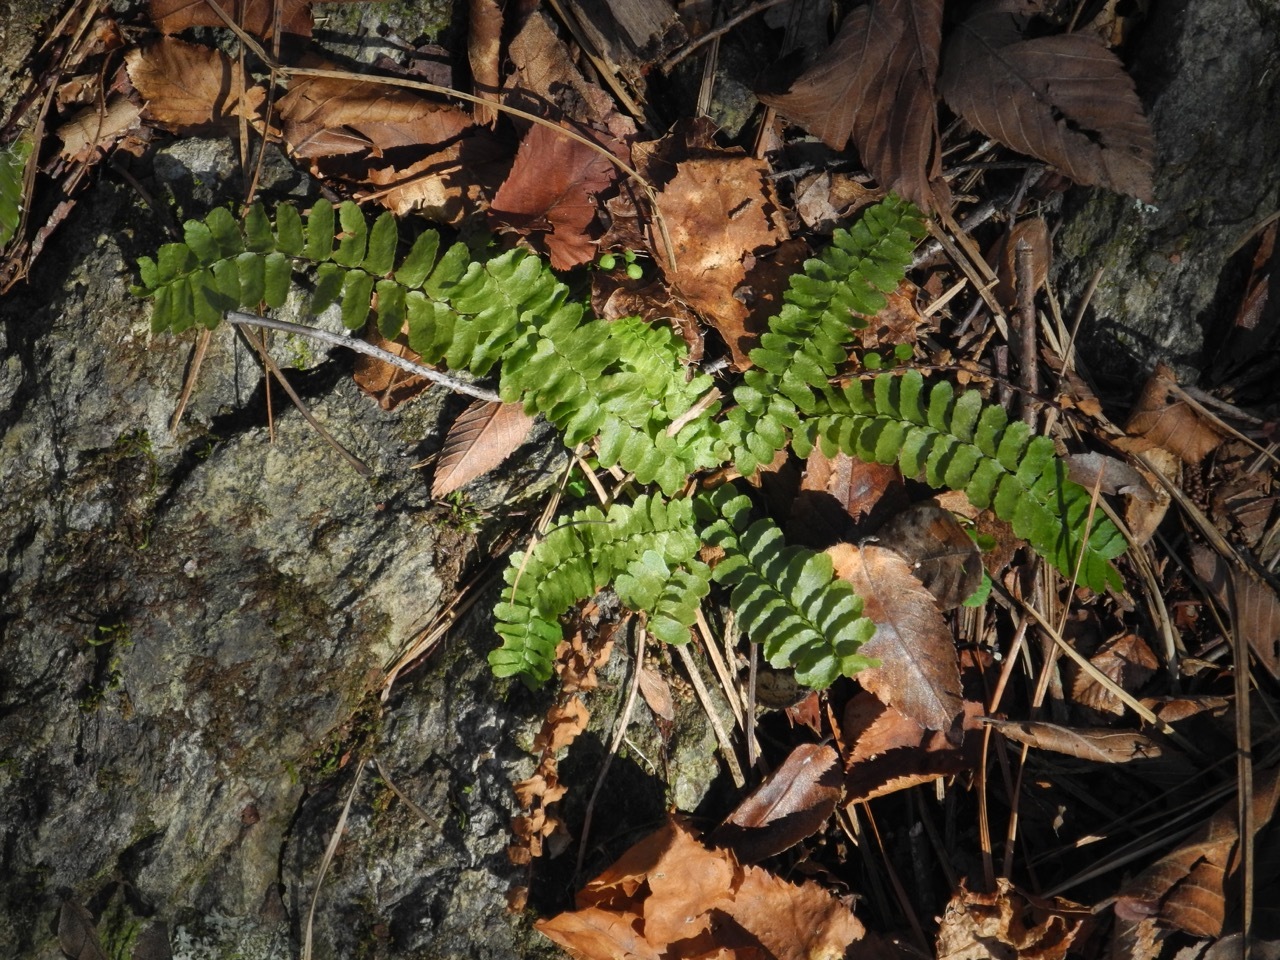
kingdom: Plantae
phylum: Tracheophyta
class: Polypodiopsida
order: Polypodiales
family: Aspleniaceae
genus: Asplenium
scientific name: Asplenium platyneuron
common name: Ebony spleenwort
